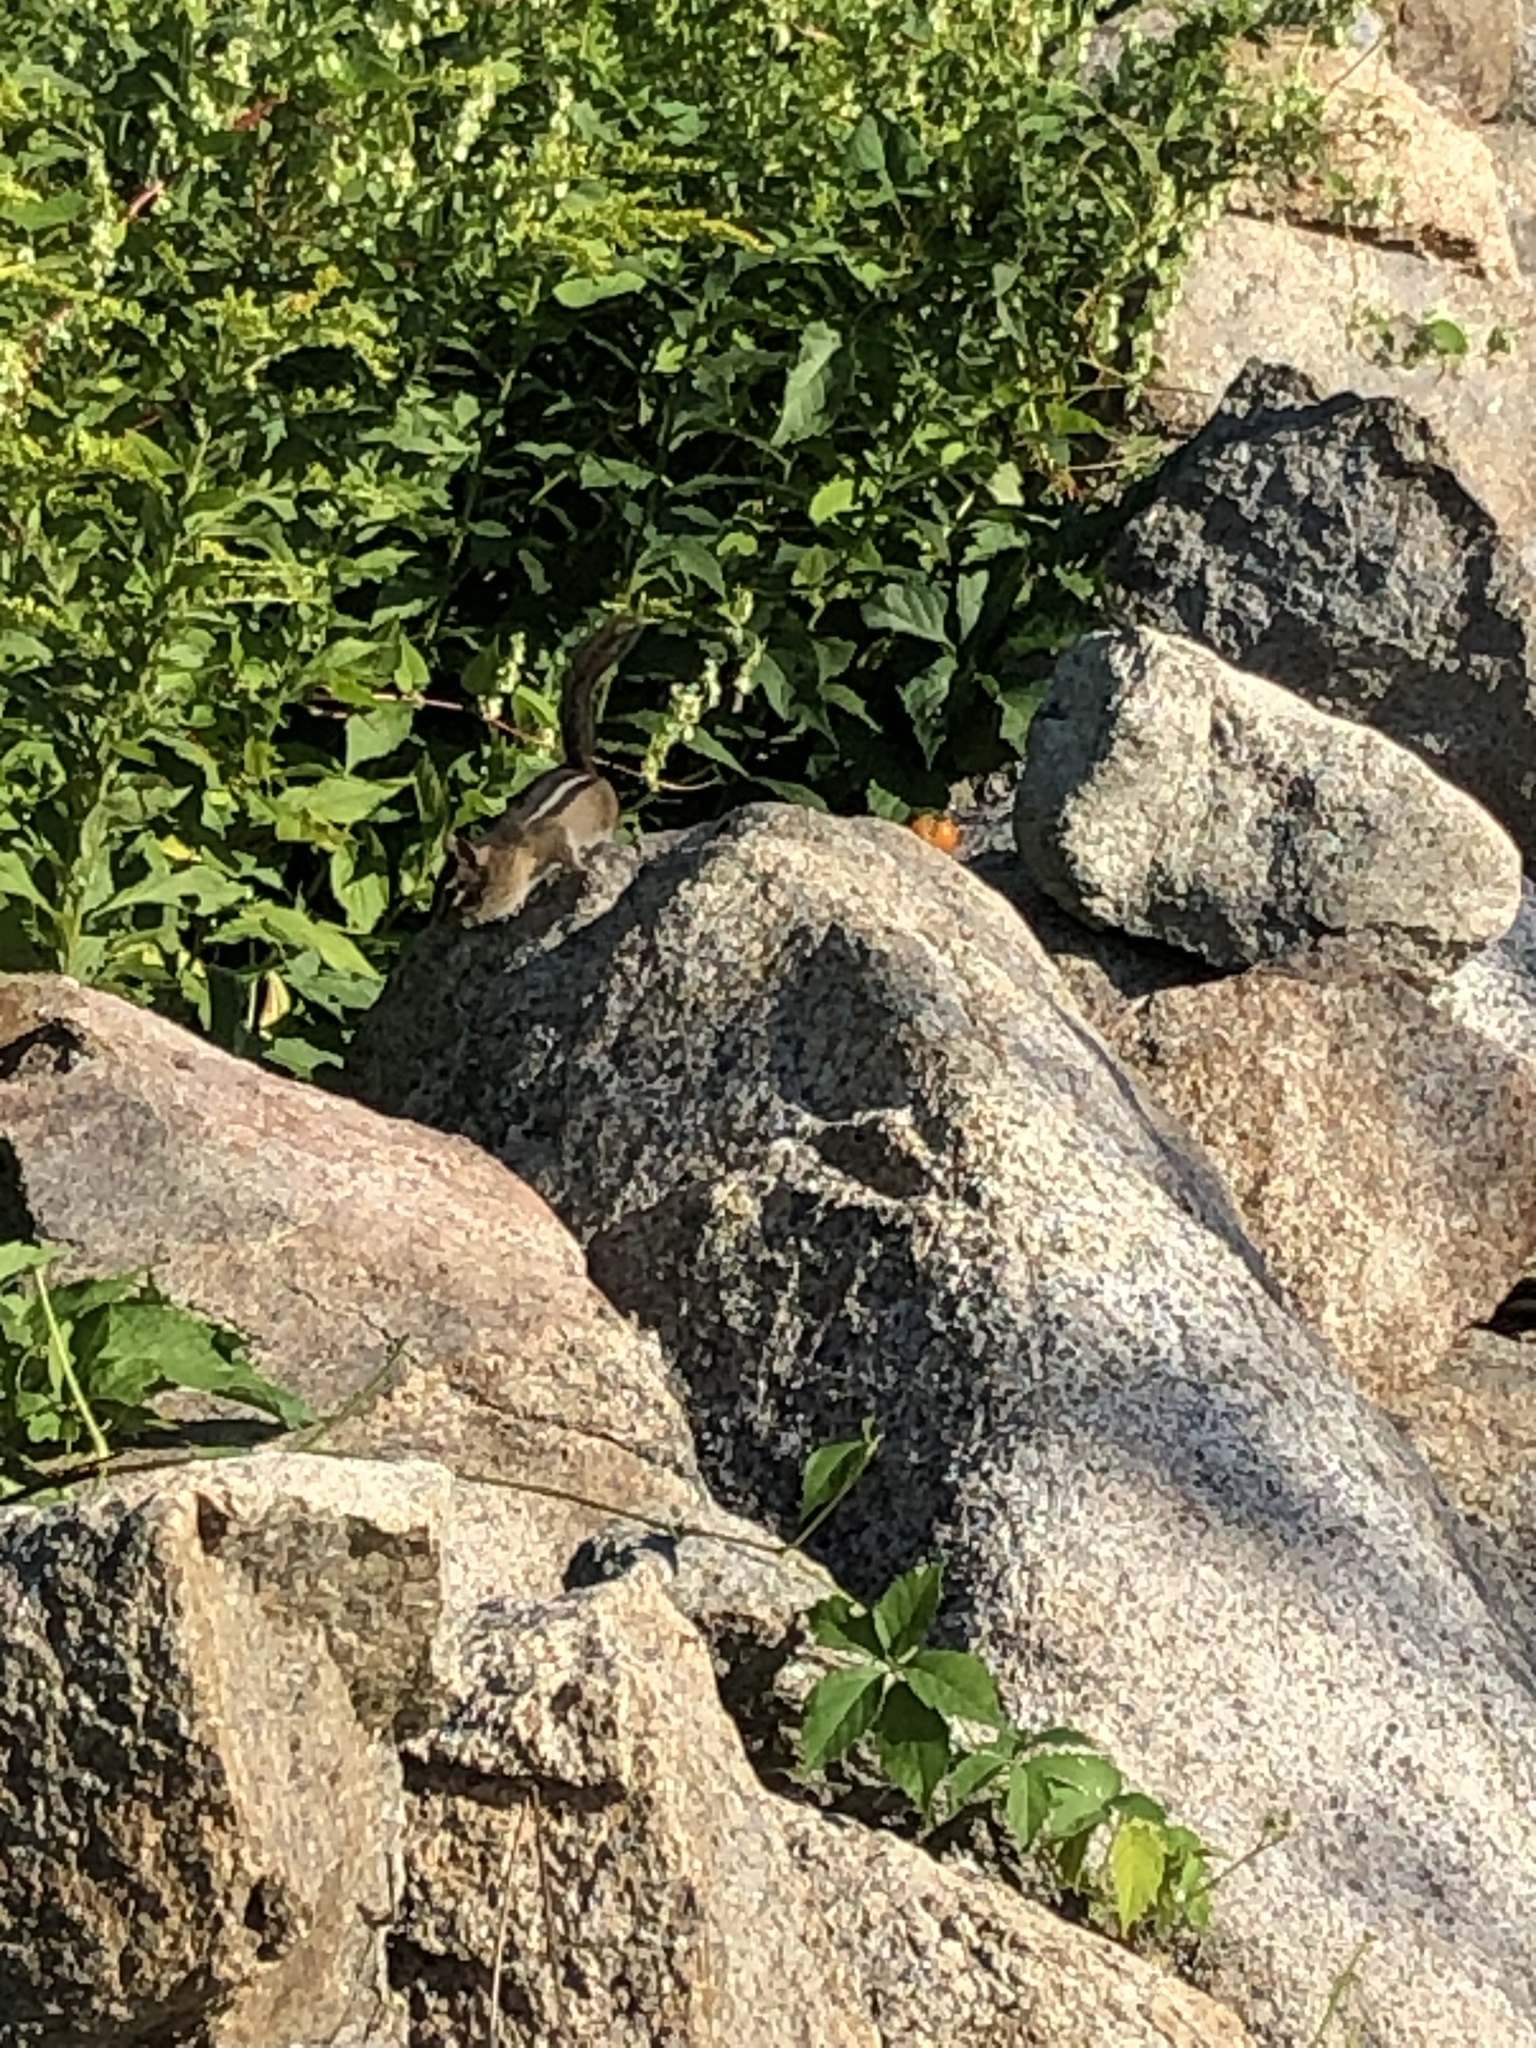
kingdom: Animalia
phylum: Chordata
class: Mammalia
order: Rodentia
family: Sciuridae
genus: Tamias
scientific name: Tamias striatus
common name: Eastern chipmunk
